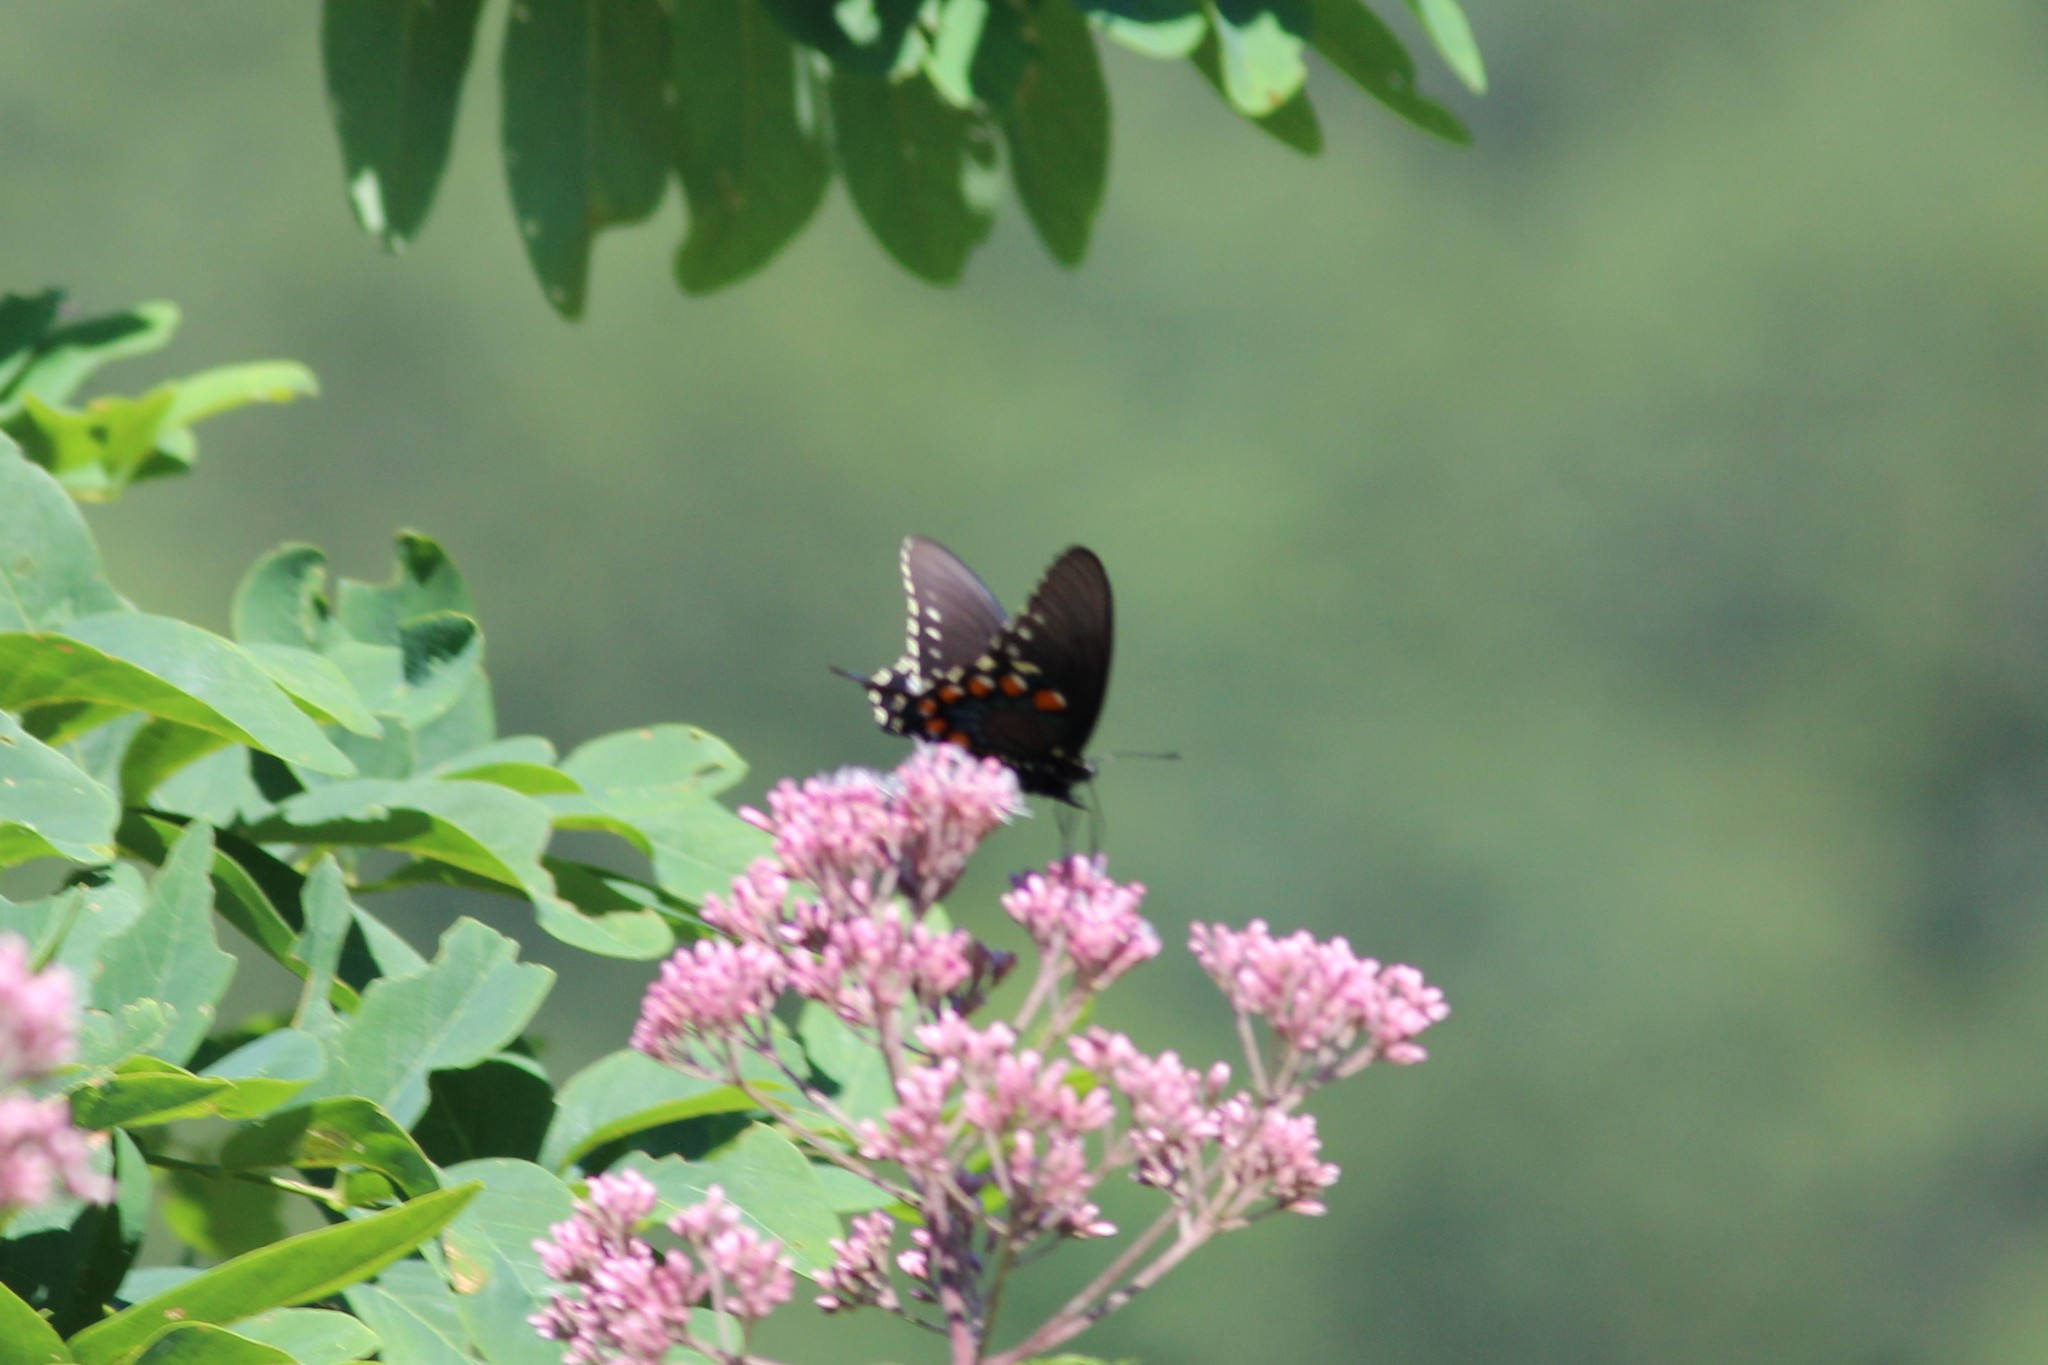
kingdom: Animalia
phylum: Arthropoda
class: Insecta
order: Lepidoptera
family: Papilionidae
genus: Battus
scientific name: Battus philenor
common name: Pipevine swallowtail
